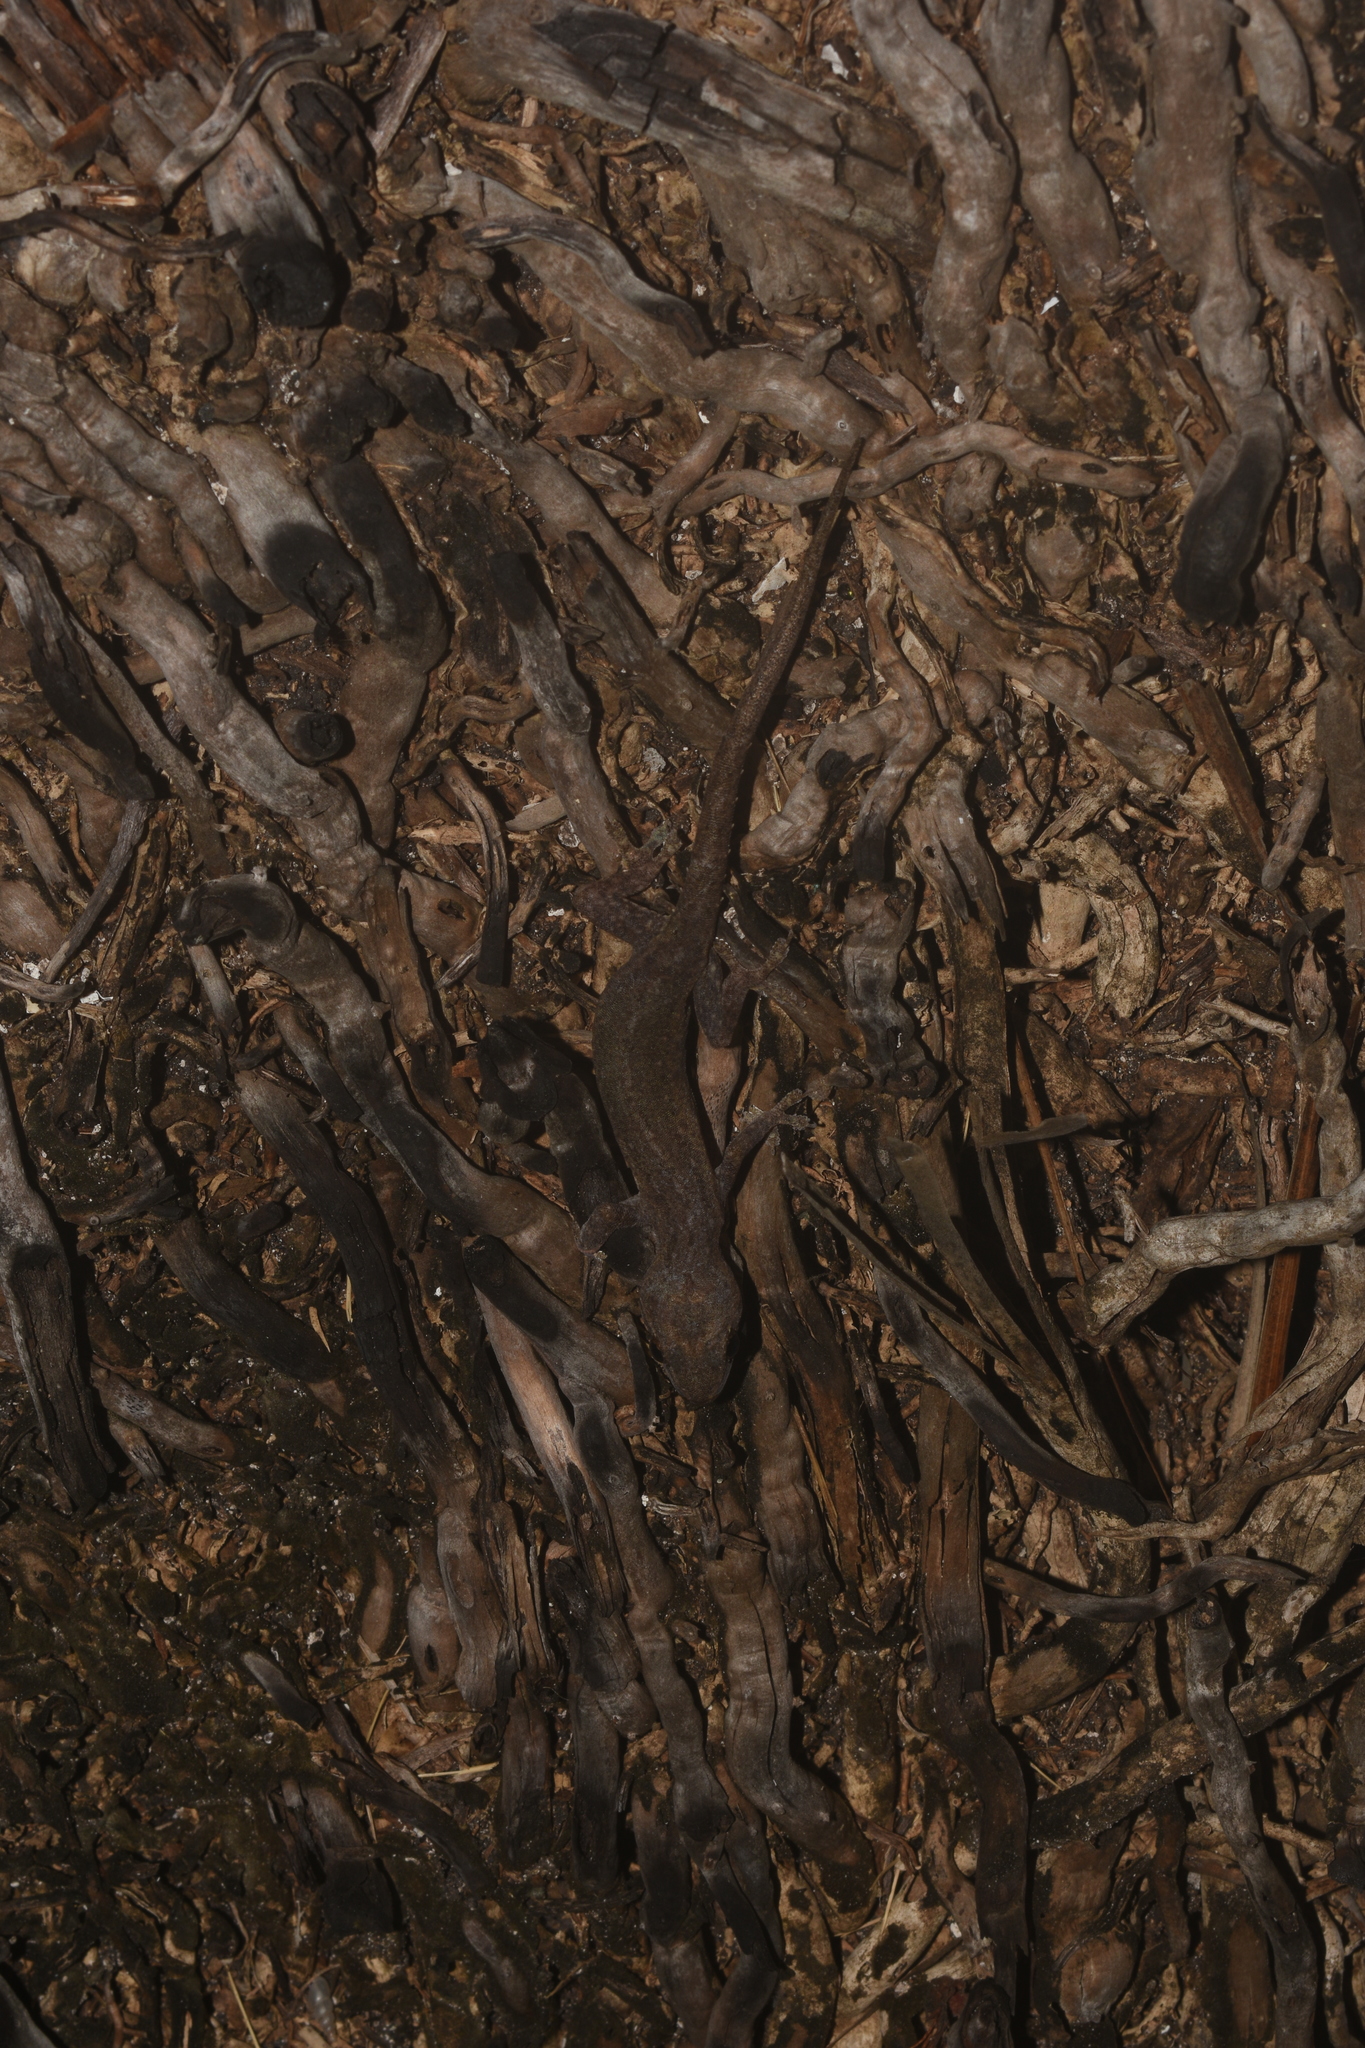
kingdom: Animalia
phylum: Chordata
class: Squamata
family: Gekkonidae
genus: Hemidactylus
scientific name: Hemidactylus frenatus
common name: Common house gecko
